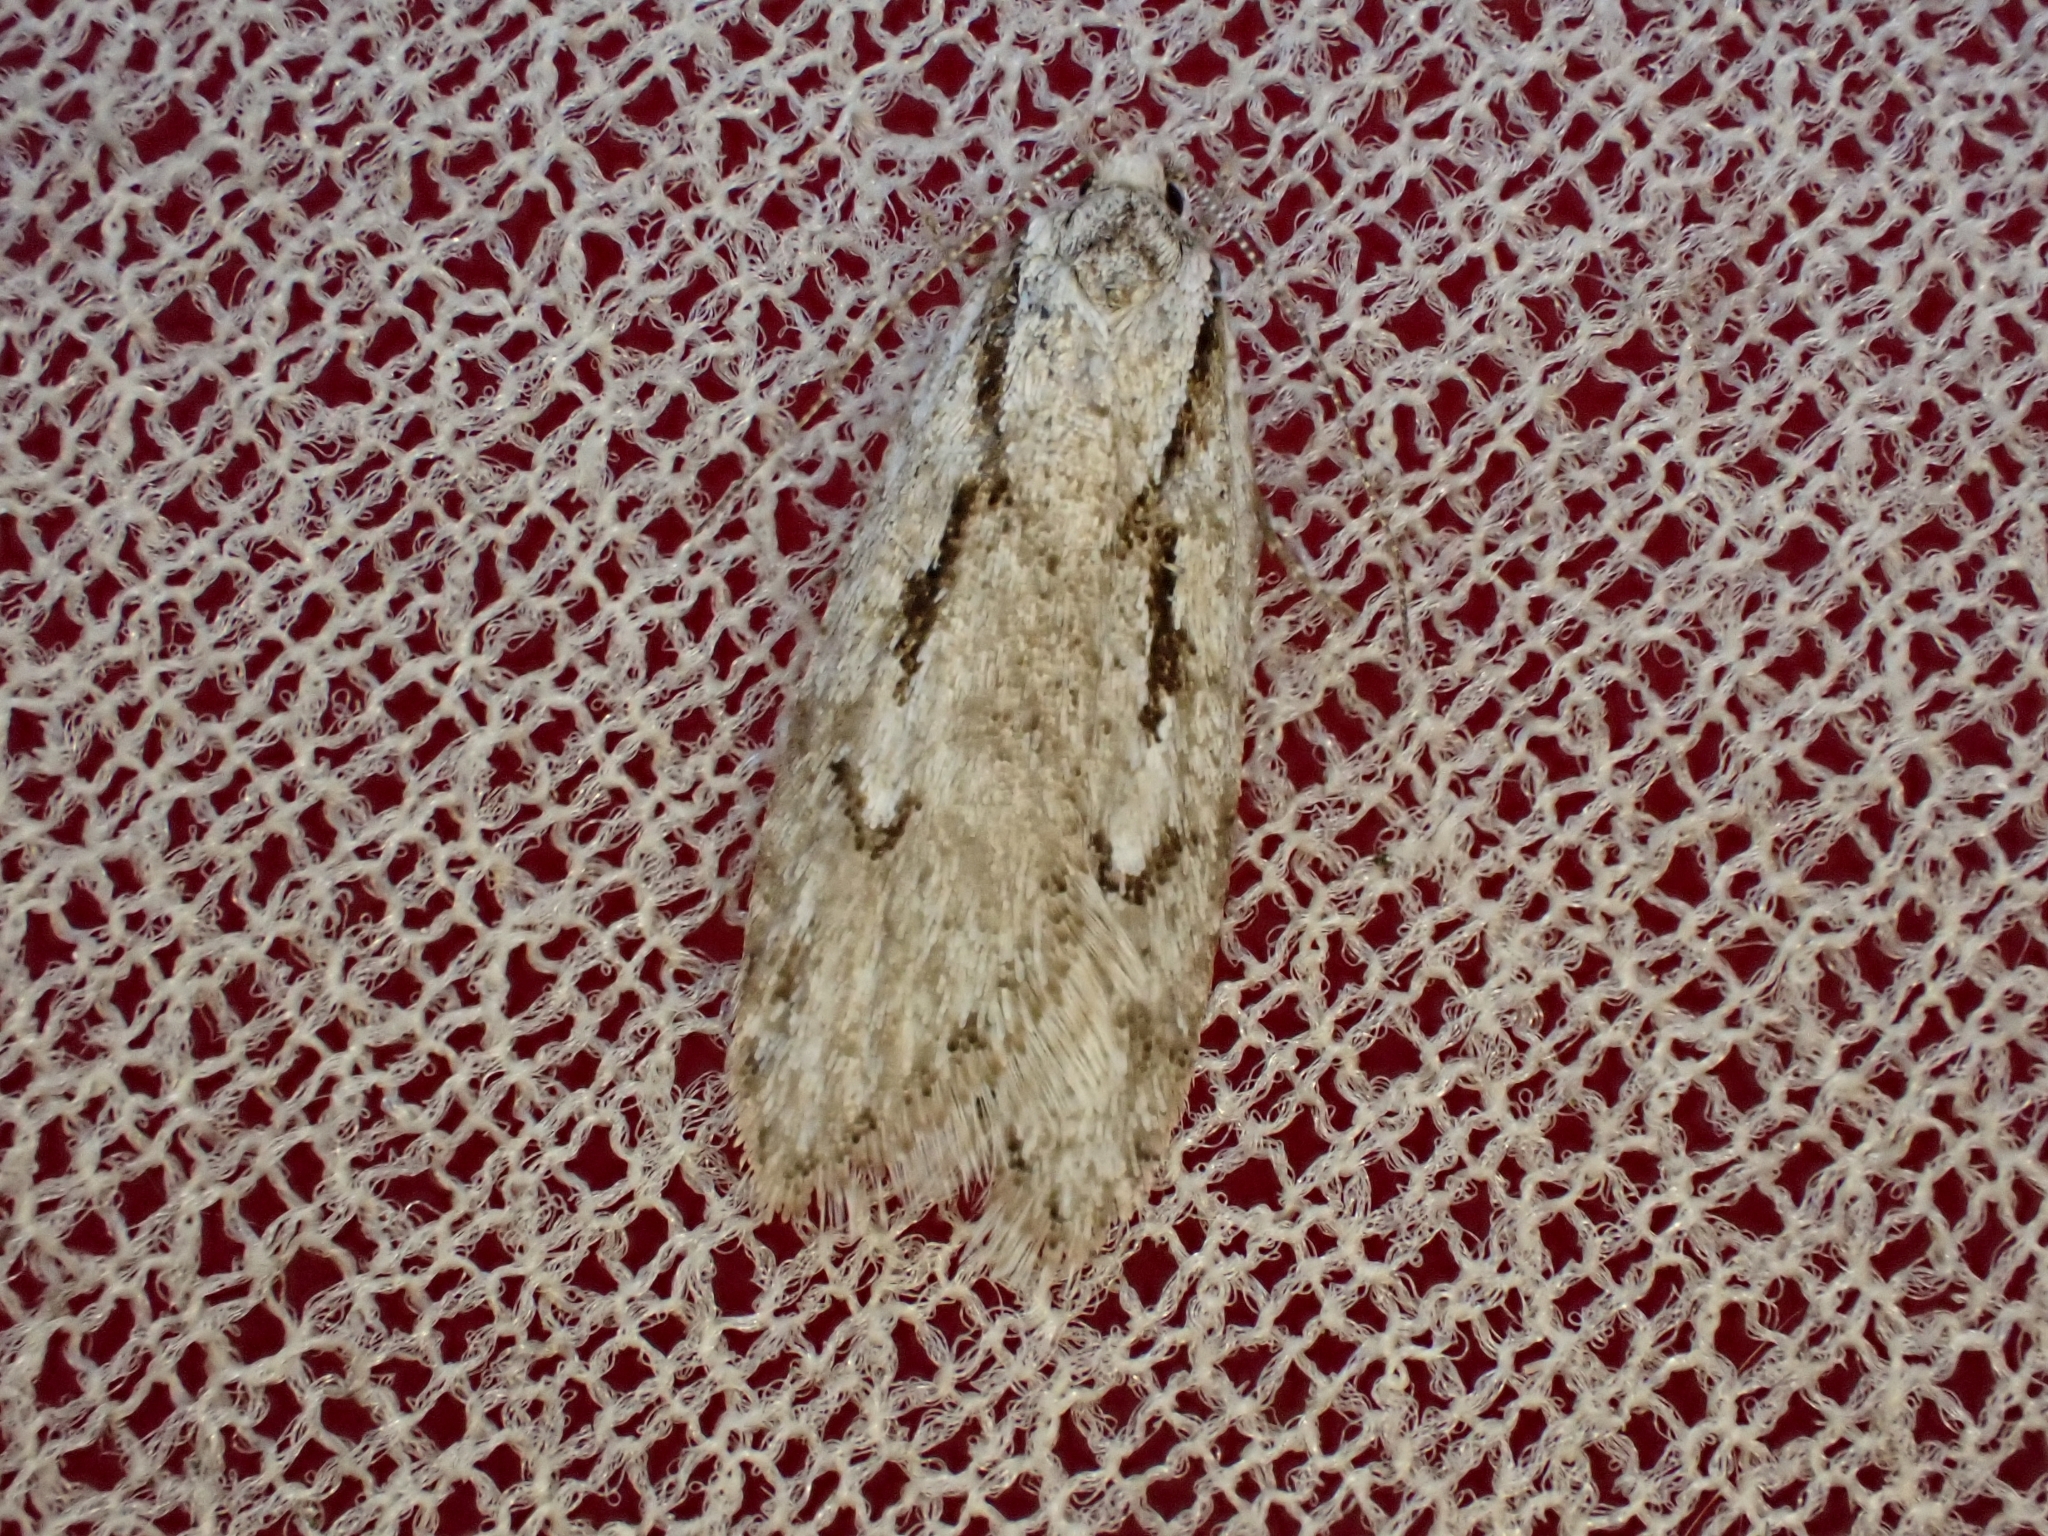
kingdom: Animalia
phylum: Arthropoda
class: Insecta
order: Lepidoptera
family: Depressariidae
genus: Semioscopis
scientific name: Semioscopis avellanella
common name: Early flat-body
